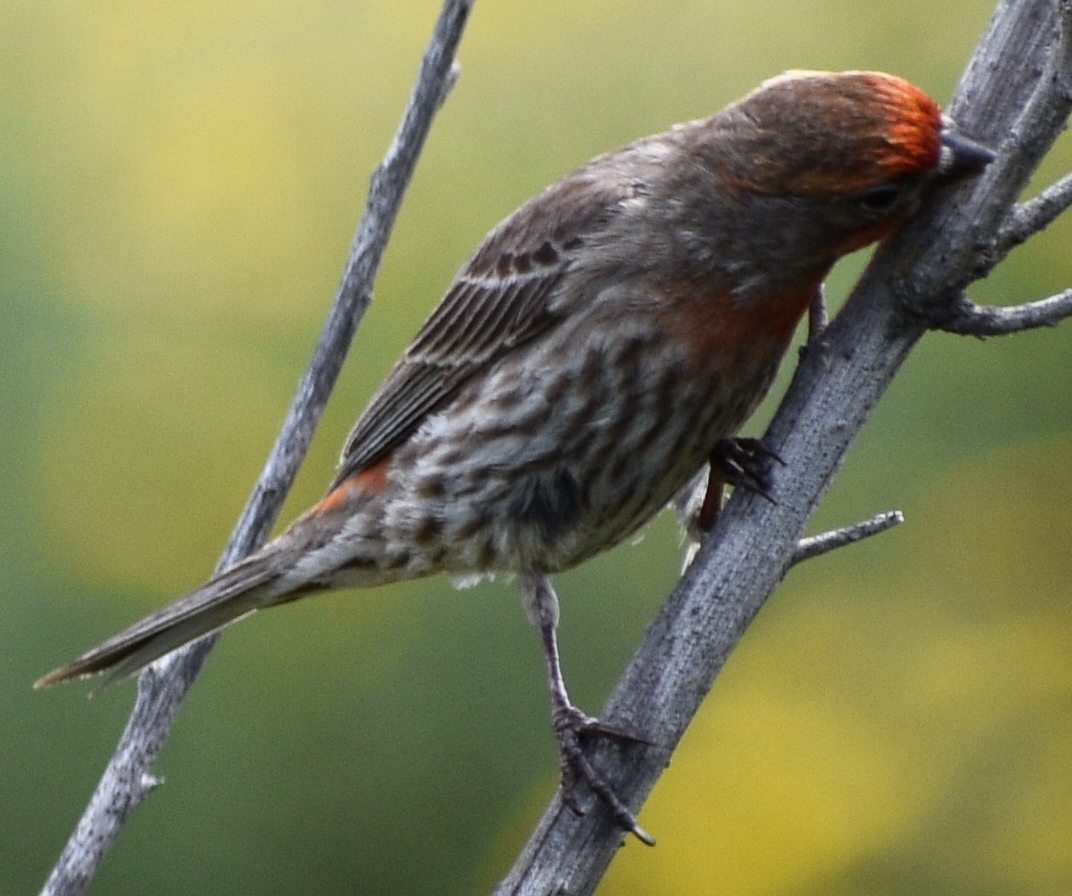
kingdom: Animalia
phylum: Chordata
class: Aves
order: Passeriformes
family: Fringillidae
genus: Haemorhous
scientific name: Haemorhous mexicanus
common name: House finch
